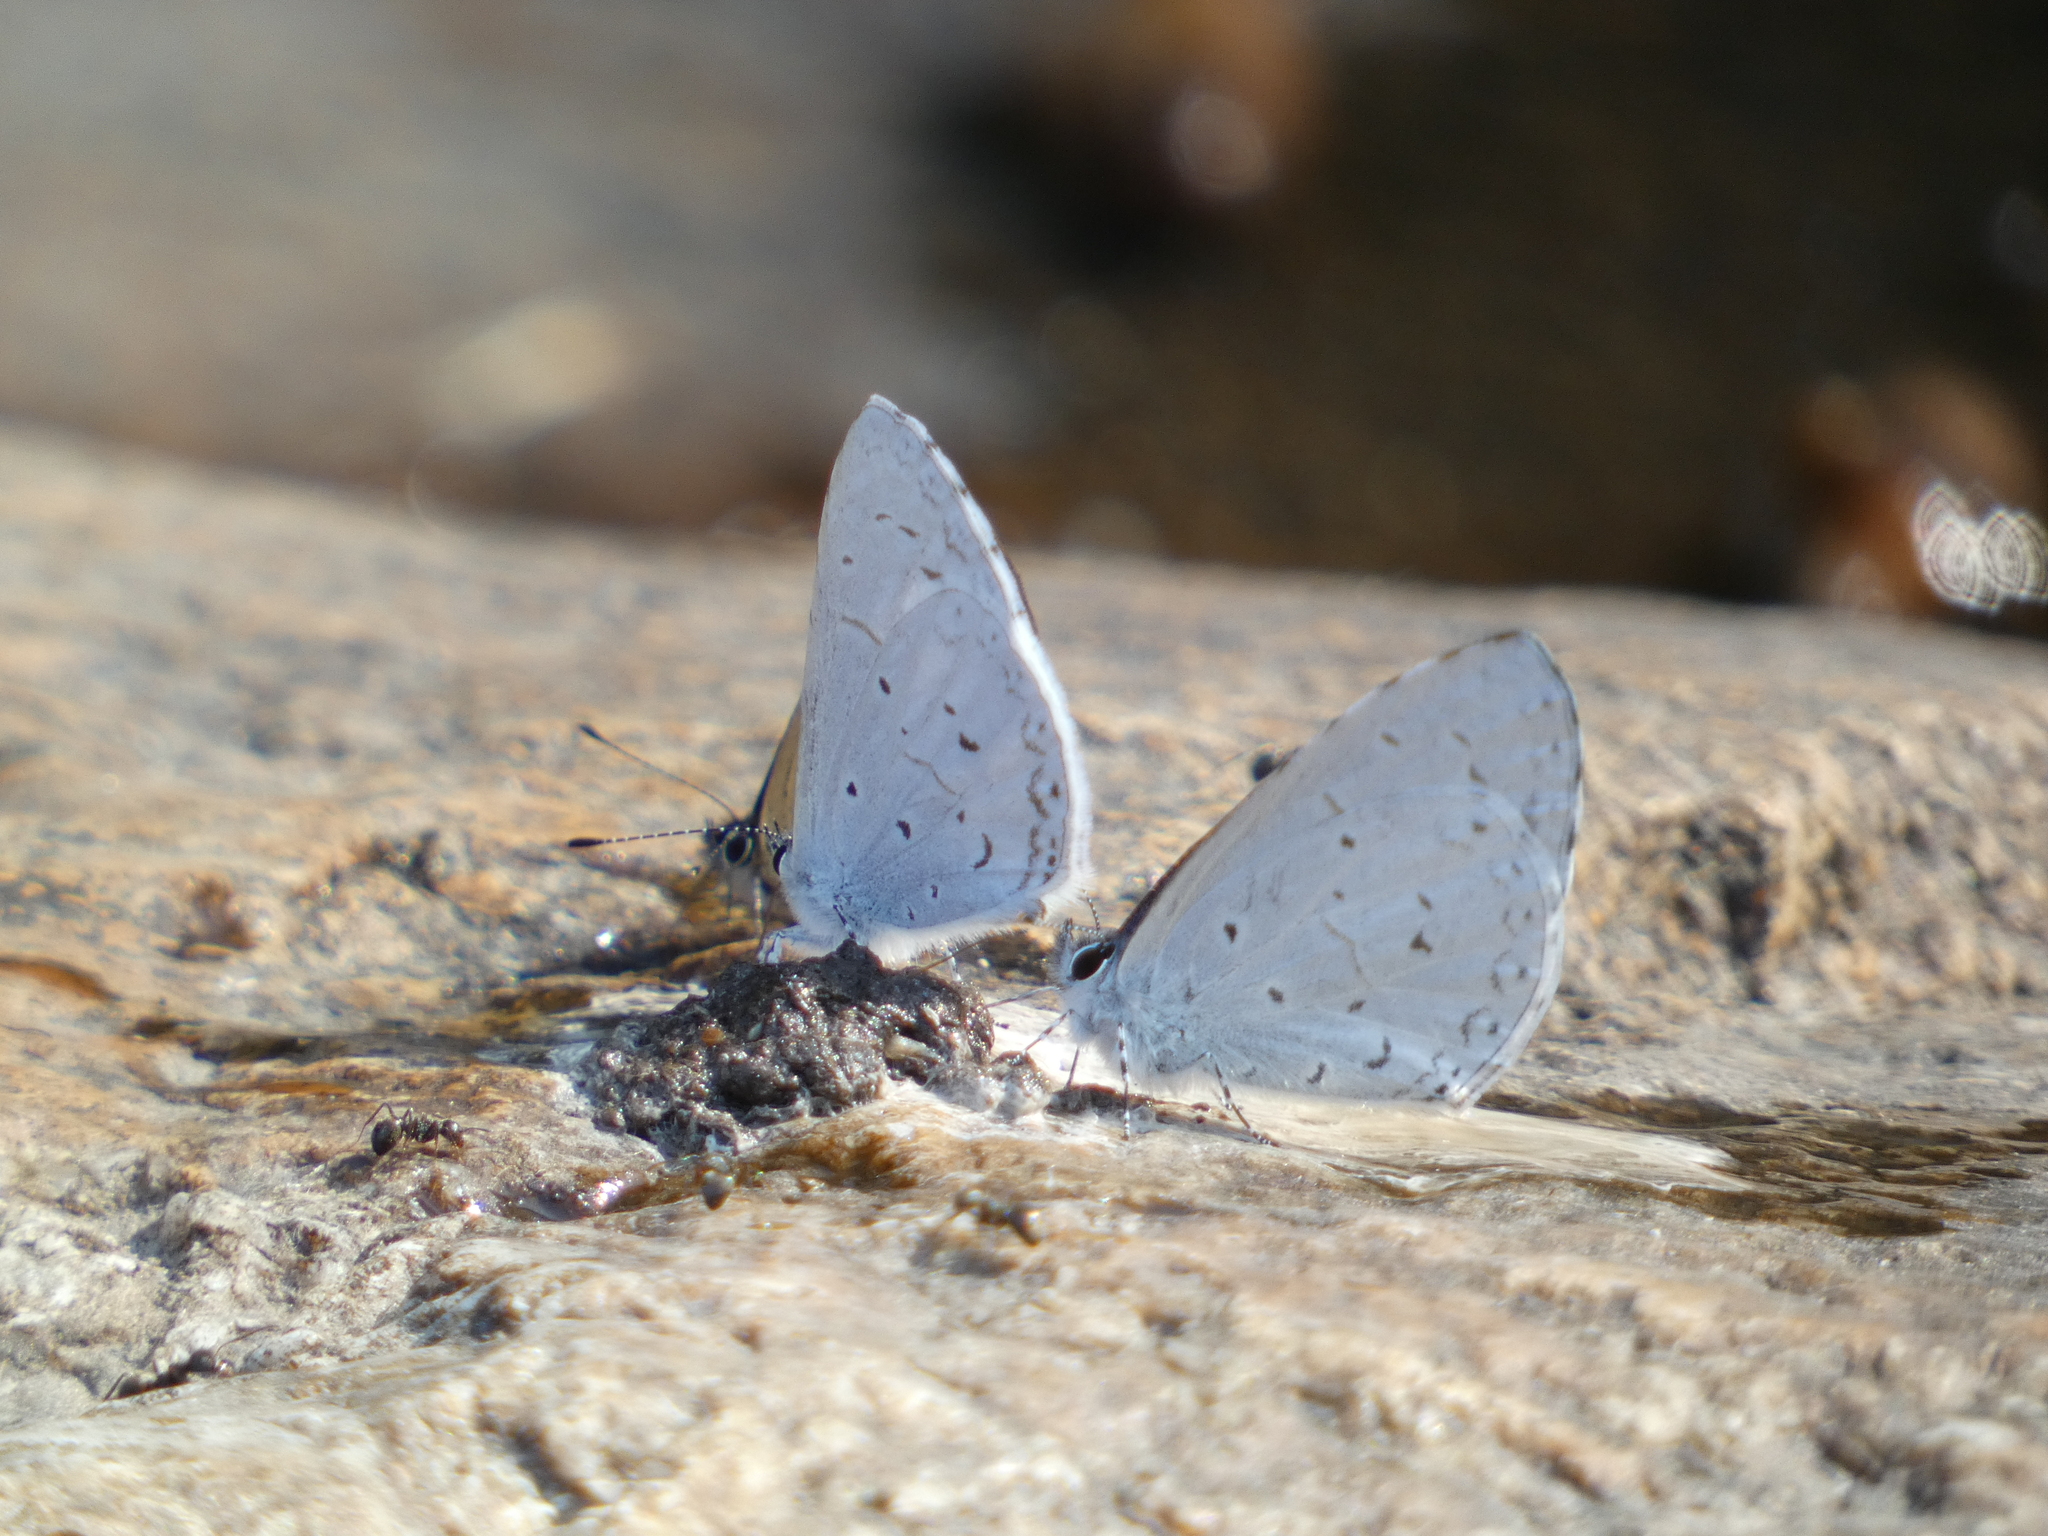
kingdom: Animalia
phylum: Arthropoda
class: Insecta
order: Lepidoptera
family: Lycaenidae
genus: Udara
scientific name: Udara dilectus
